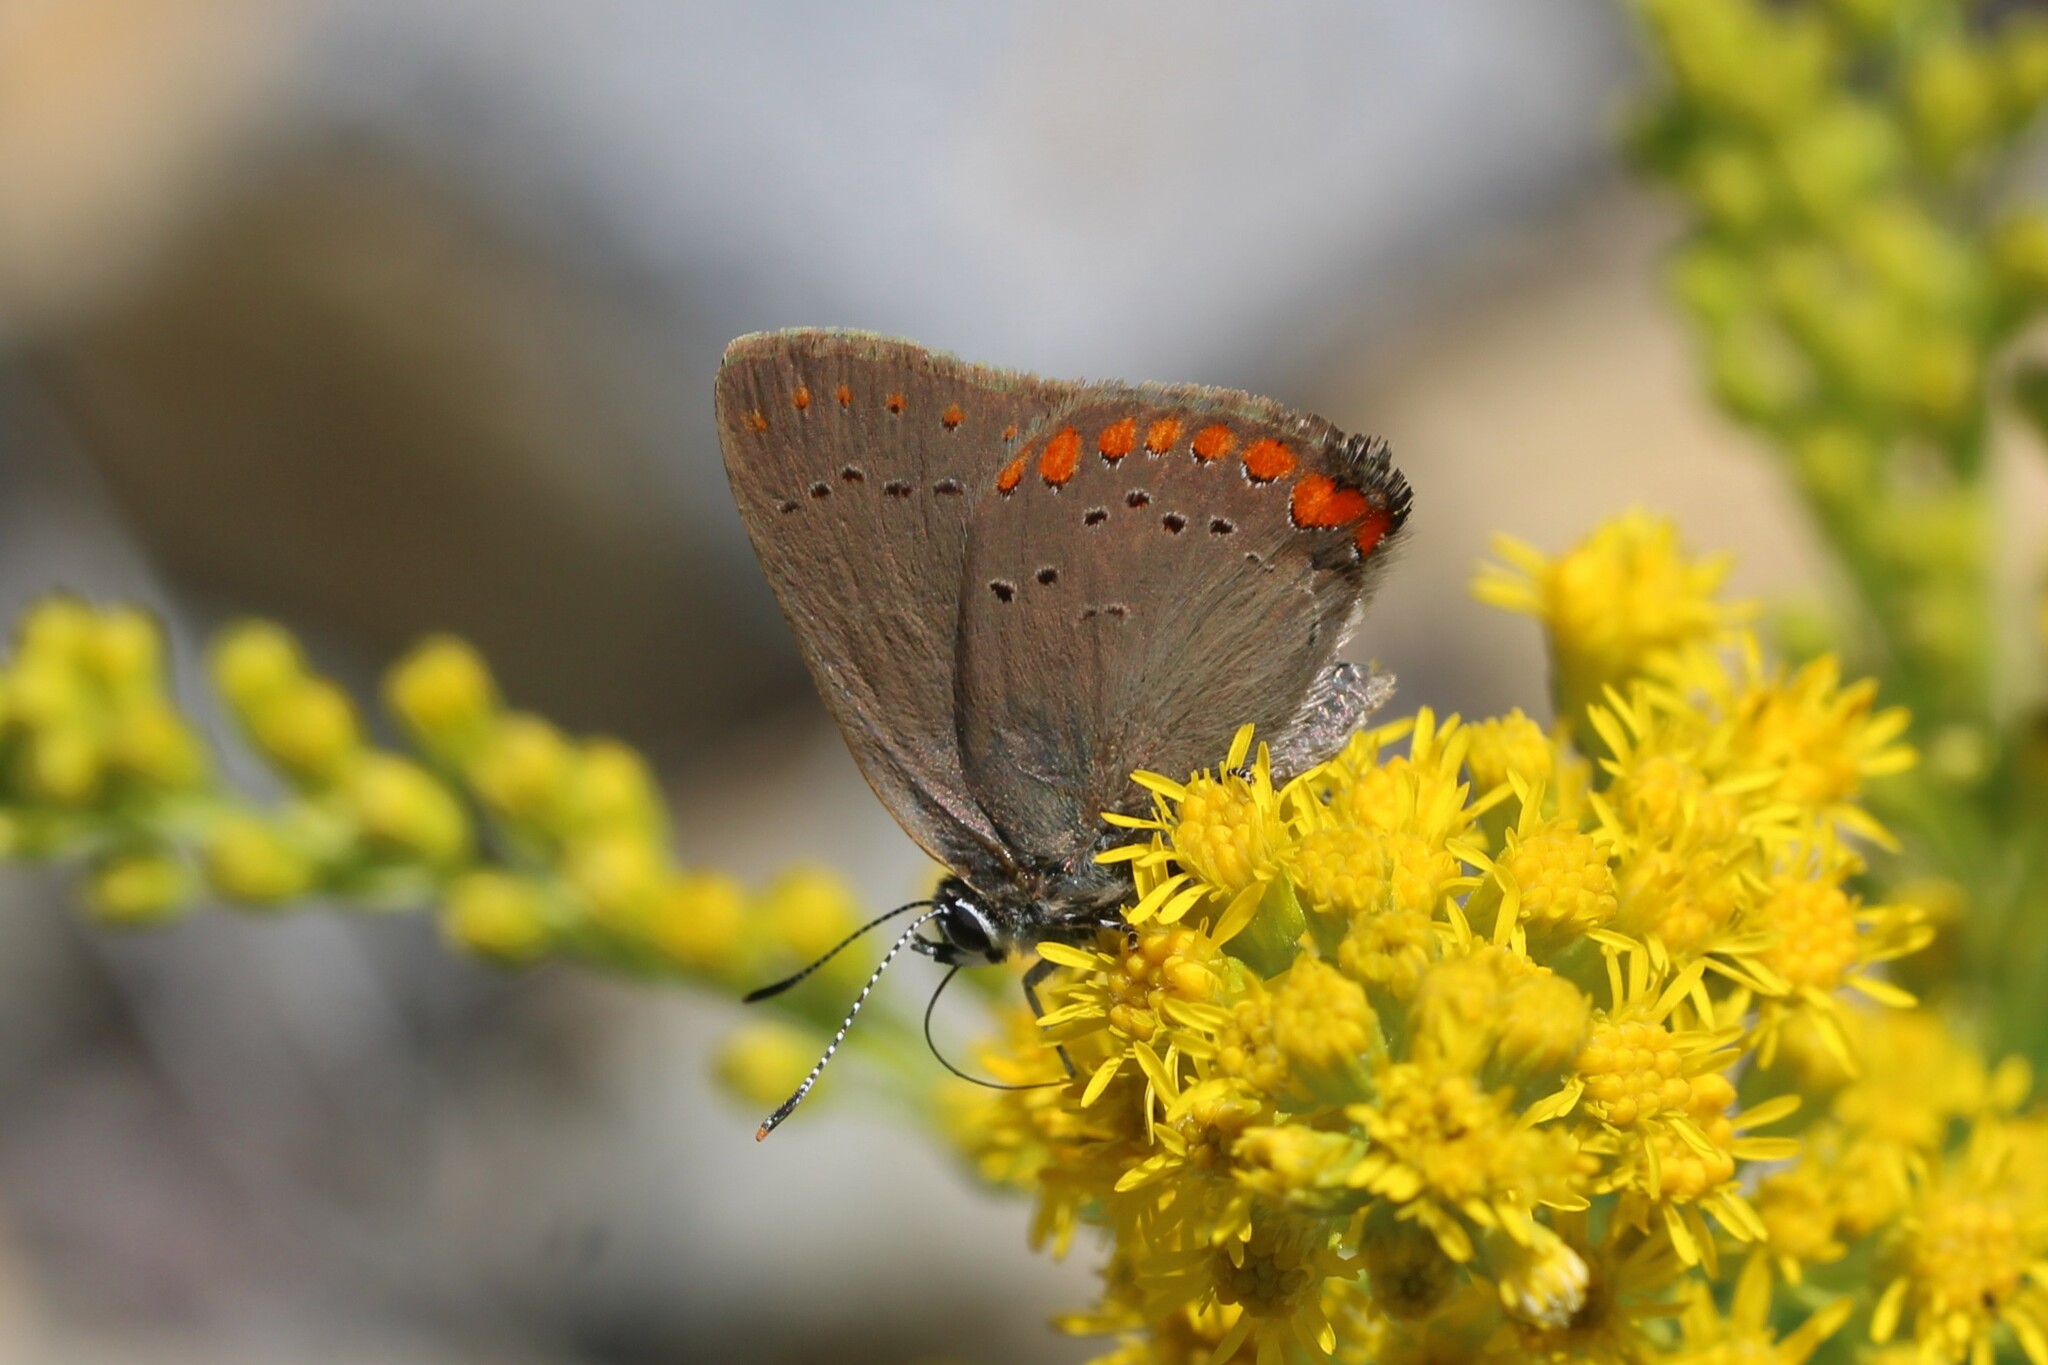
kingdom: Animalia
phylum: Arthropoda
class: Insecta
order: Lepidoptera
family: Lycaenidae
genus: Harkenclenus
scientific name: Harkenclenus titus
